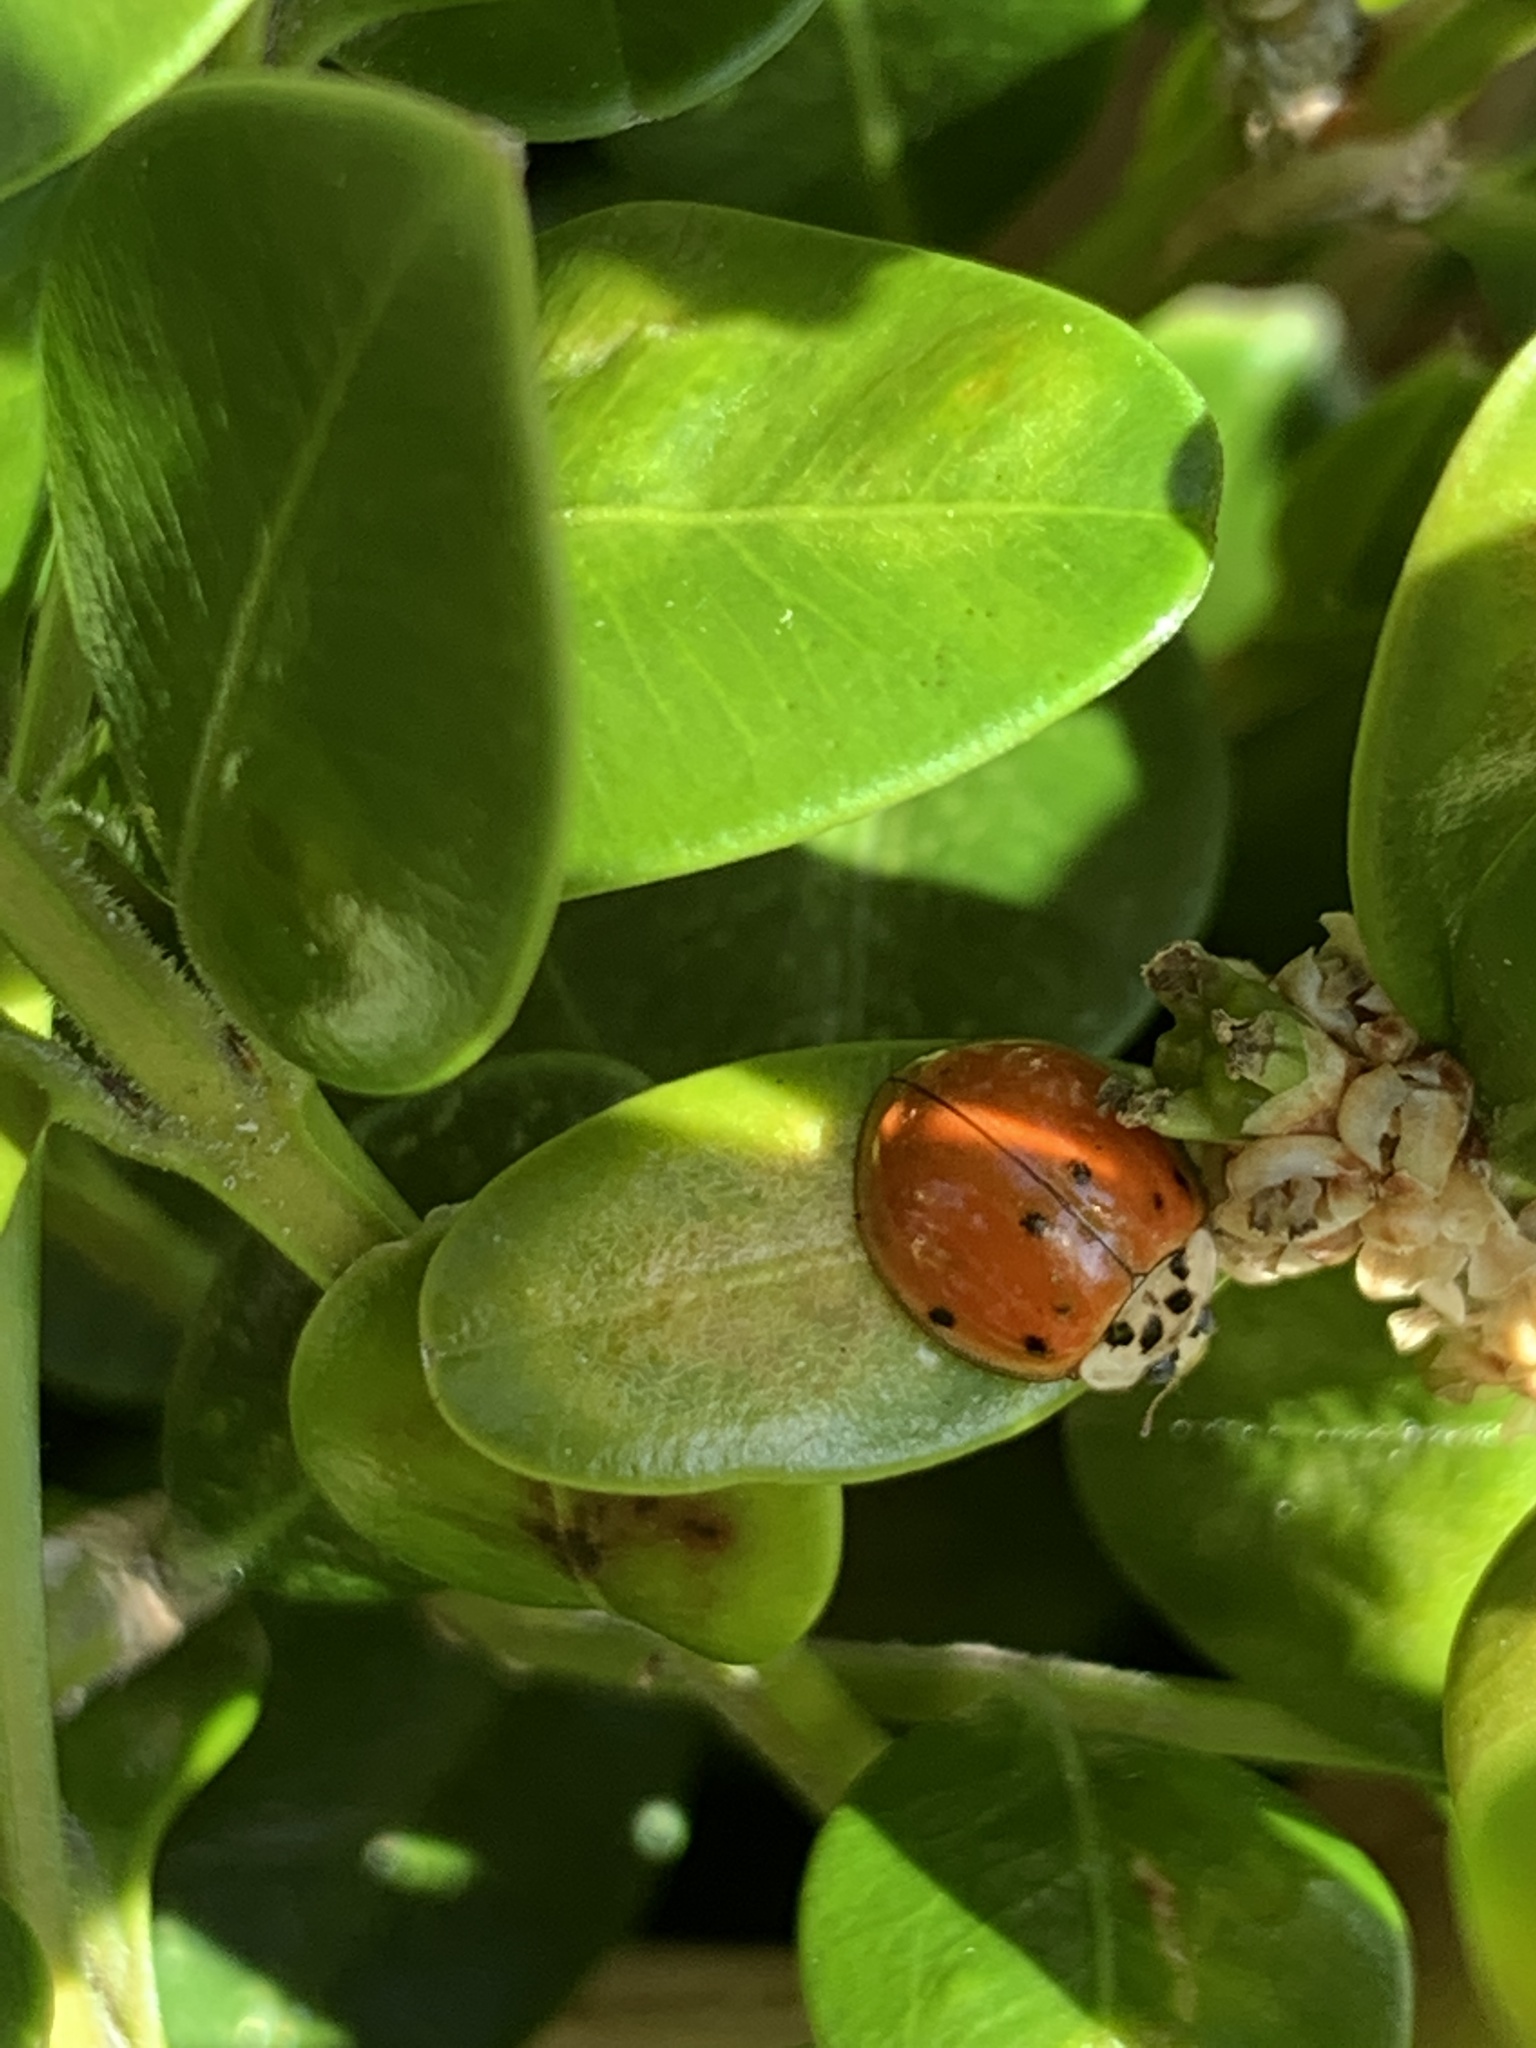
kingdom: Animalia
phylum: Arthropoda
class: Insecta
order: Coleoptera
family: Coccinellidae
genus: Harmonia
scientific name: Harmonia axyridis
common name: Harlequin ladybird
